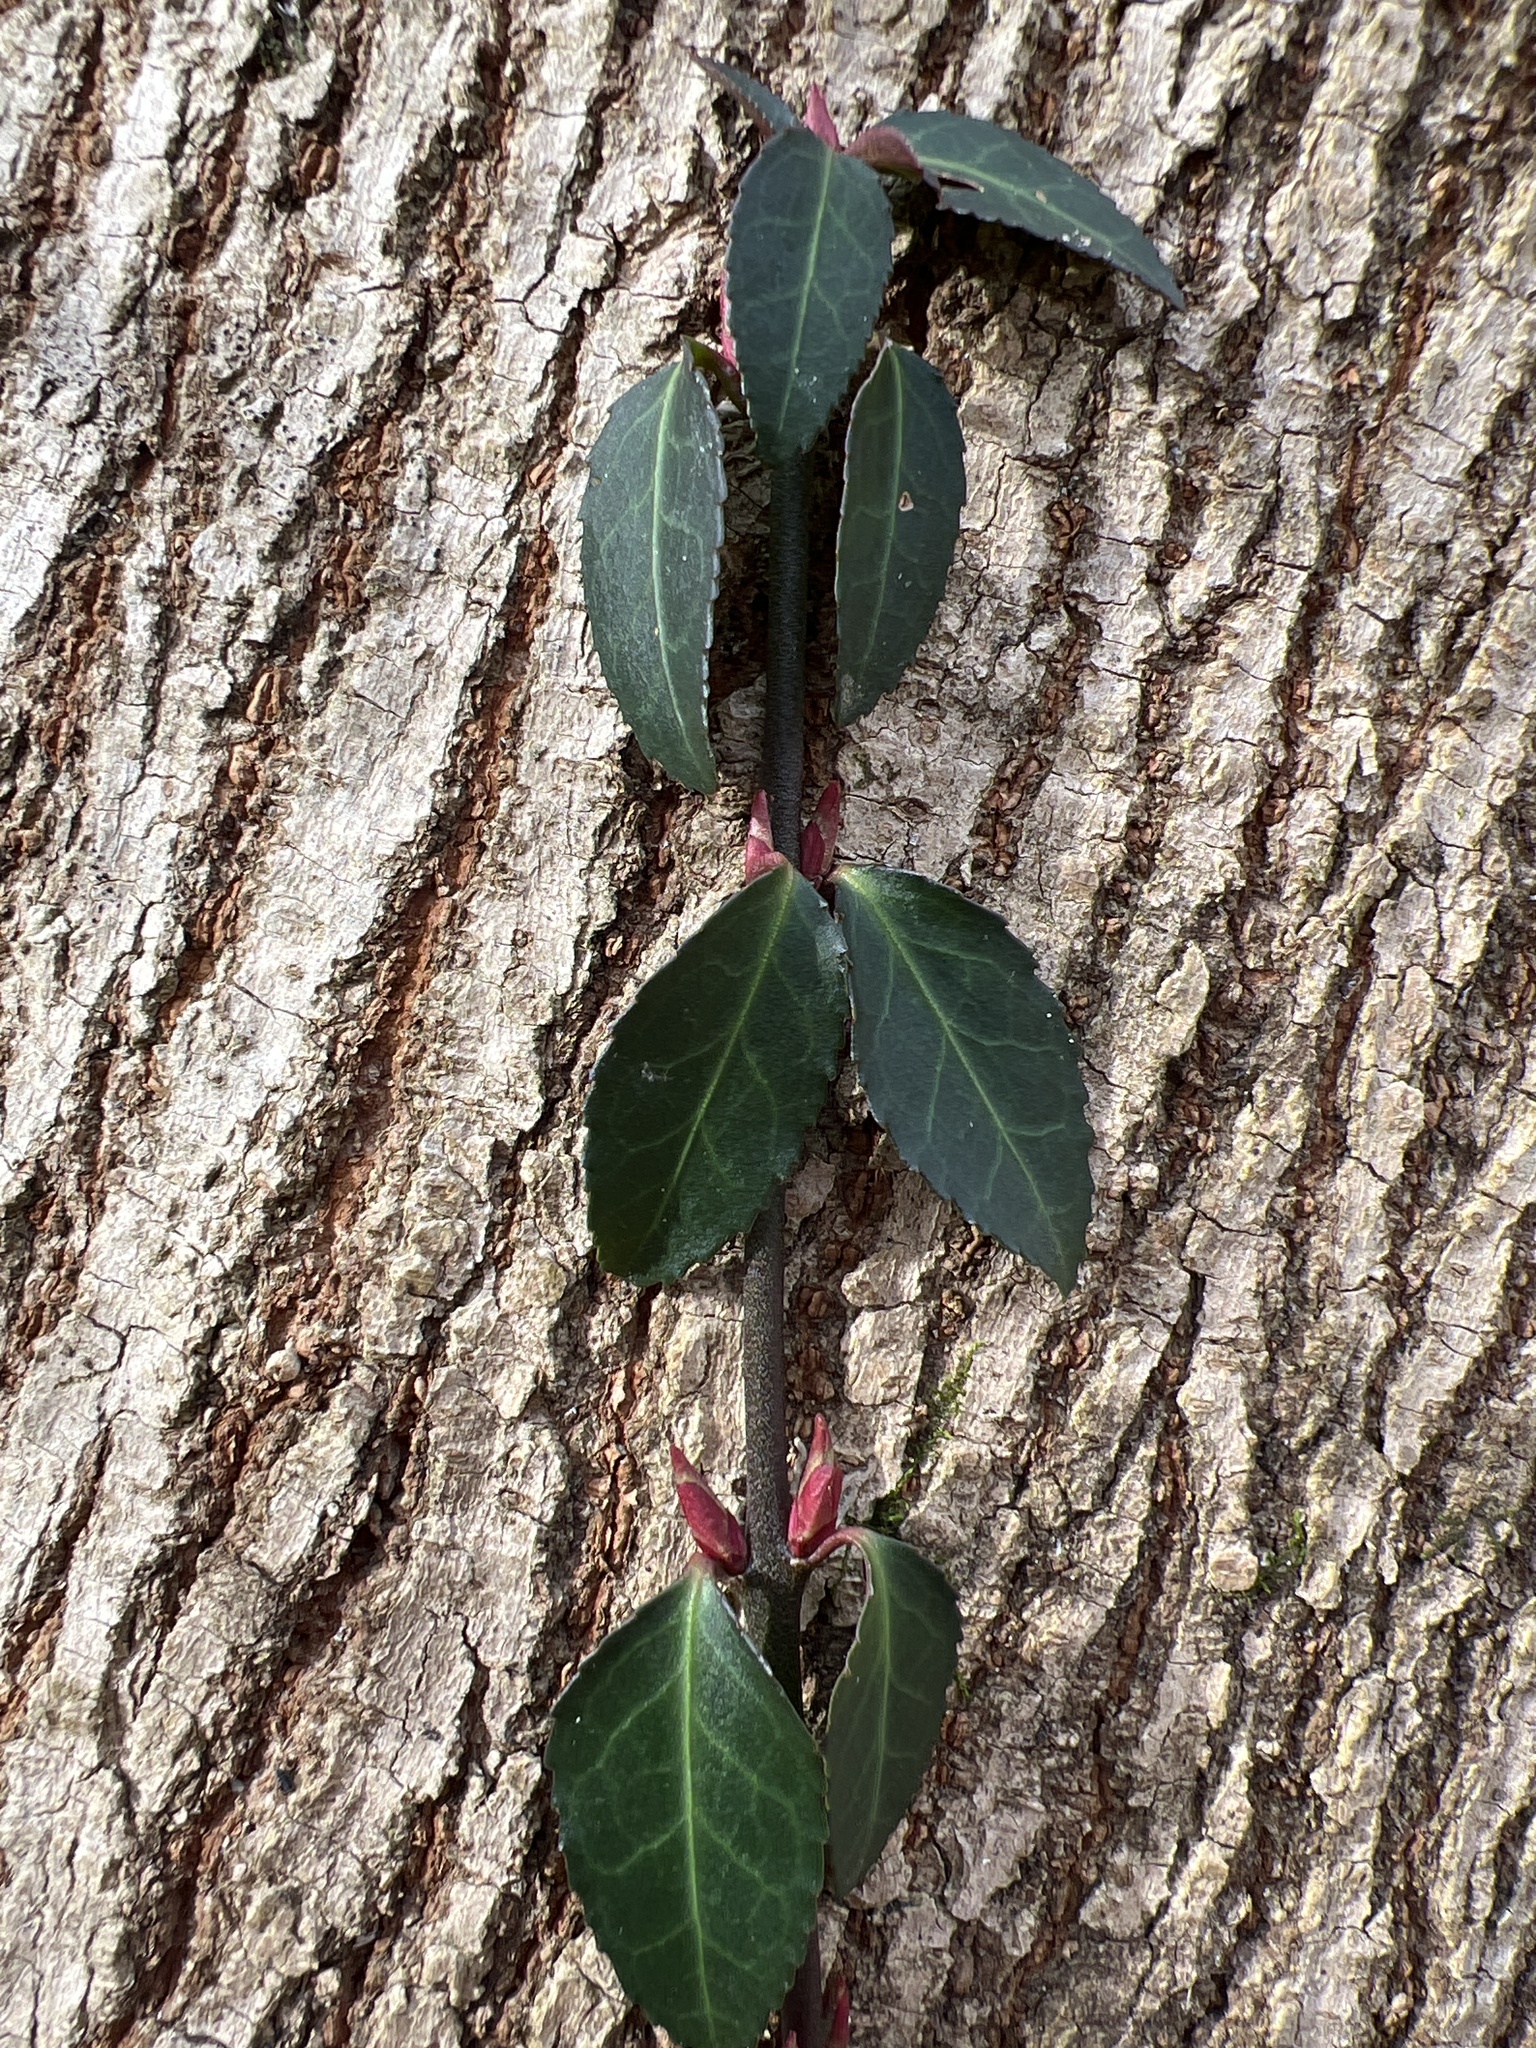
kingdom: Plantae
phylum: Tracheophyta
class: Magnoliopsida
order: Celastrales
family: Celastraceae
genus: Euonymus
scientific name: Euonymus fortunei
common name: Climbing euonymus
